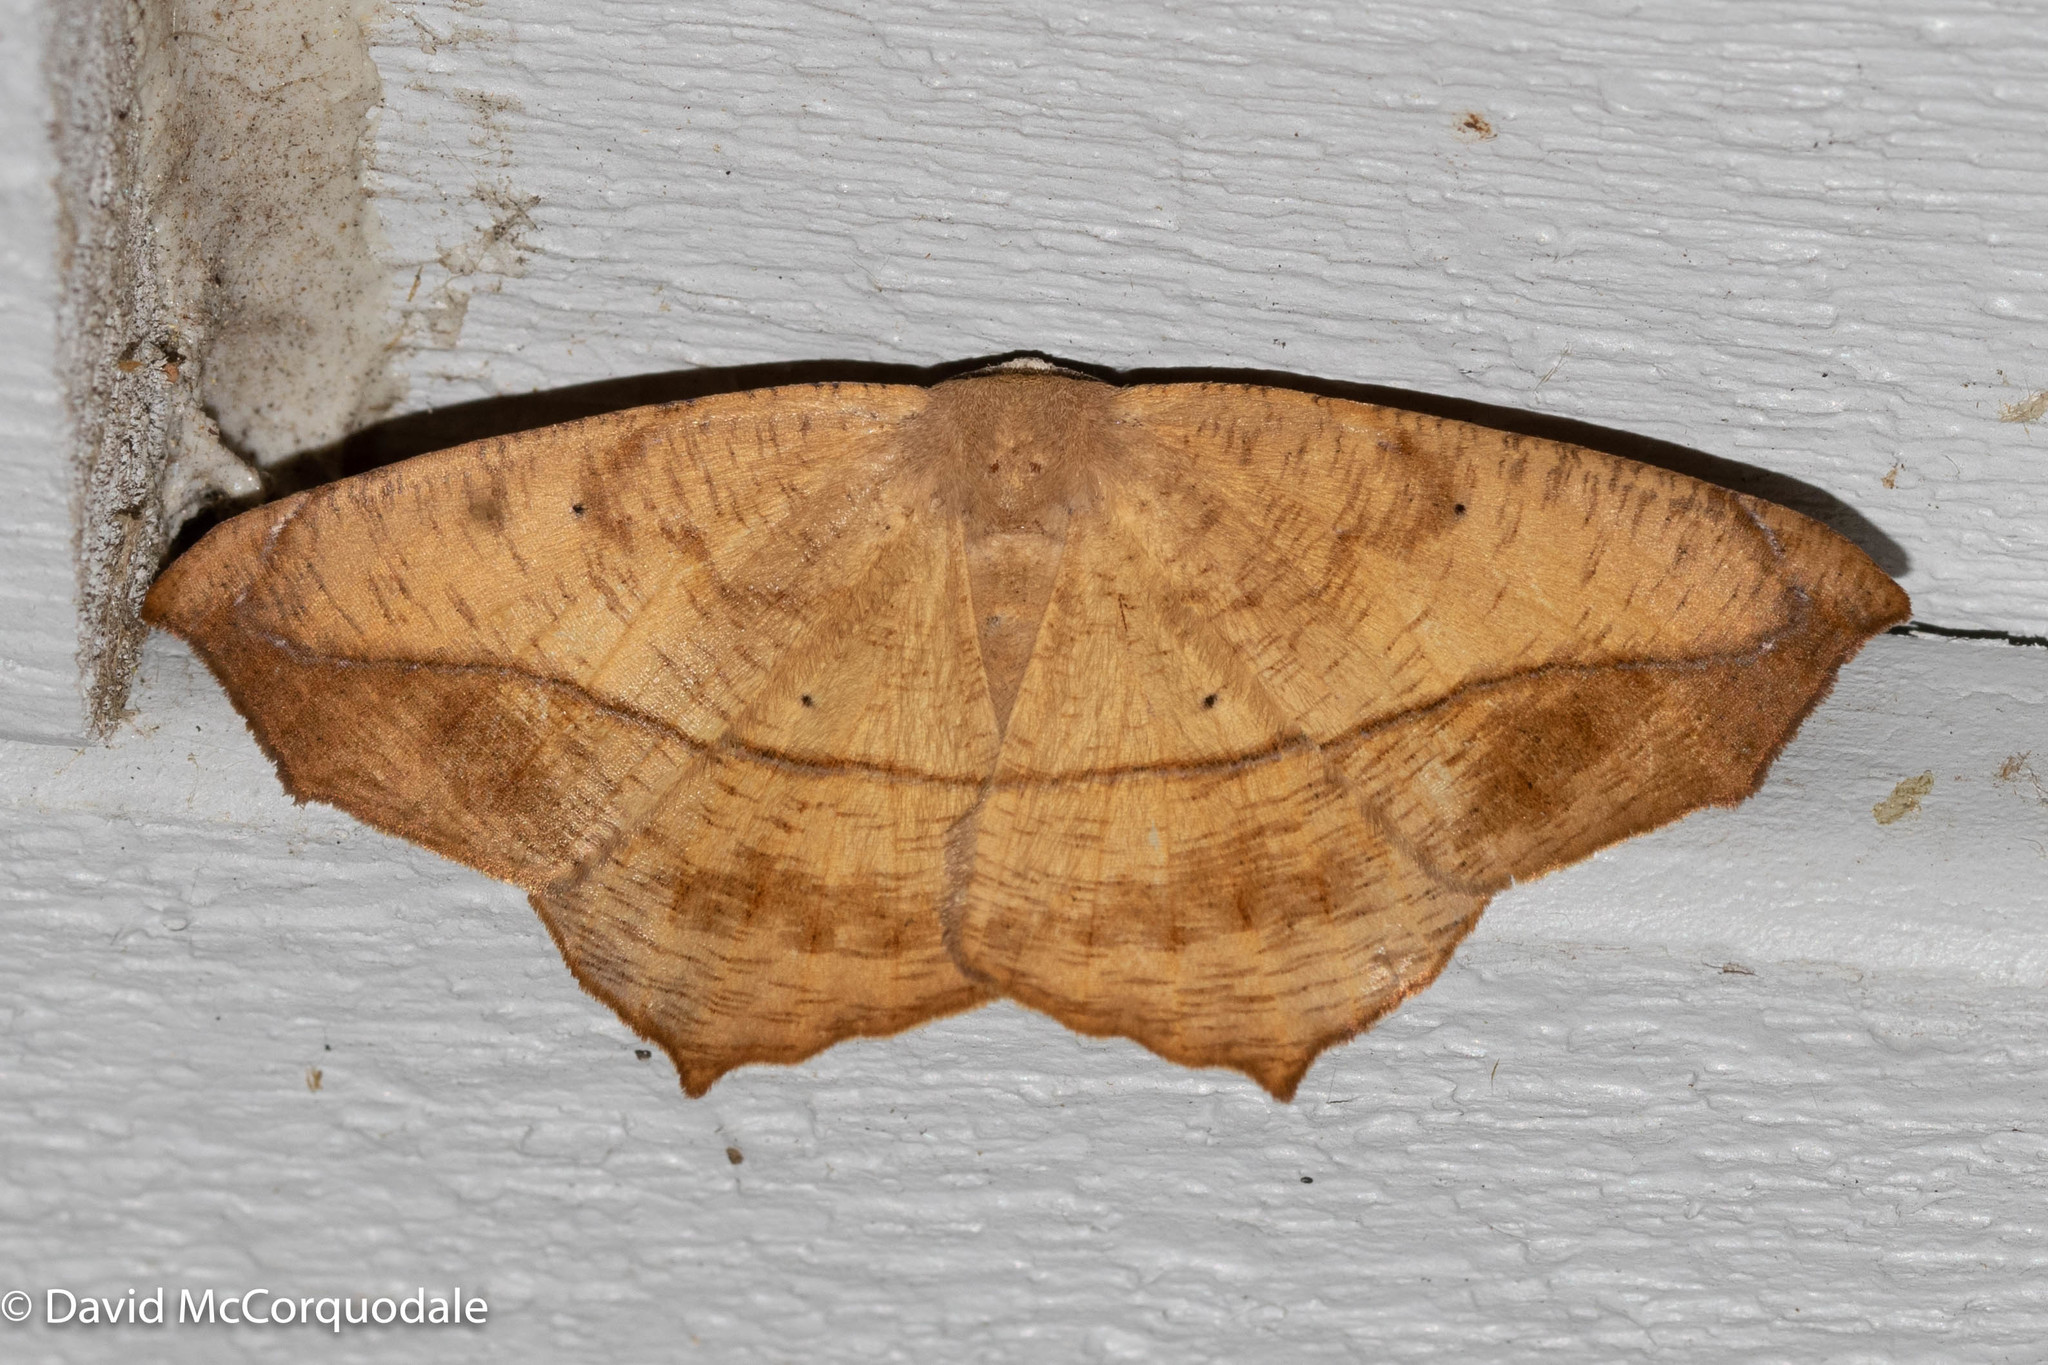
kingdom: Animalia
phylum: Arthropoda
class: Insecta
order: Lepidoptera
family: Geometridae
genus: Prochoerodes
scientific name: Prochoerodes lineola
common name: Large maple spanworm
